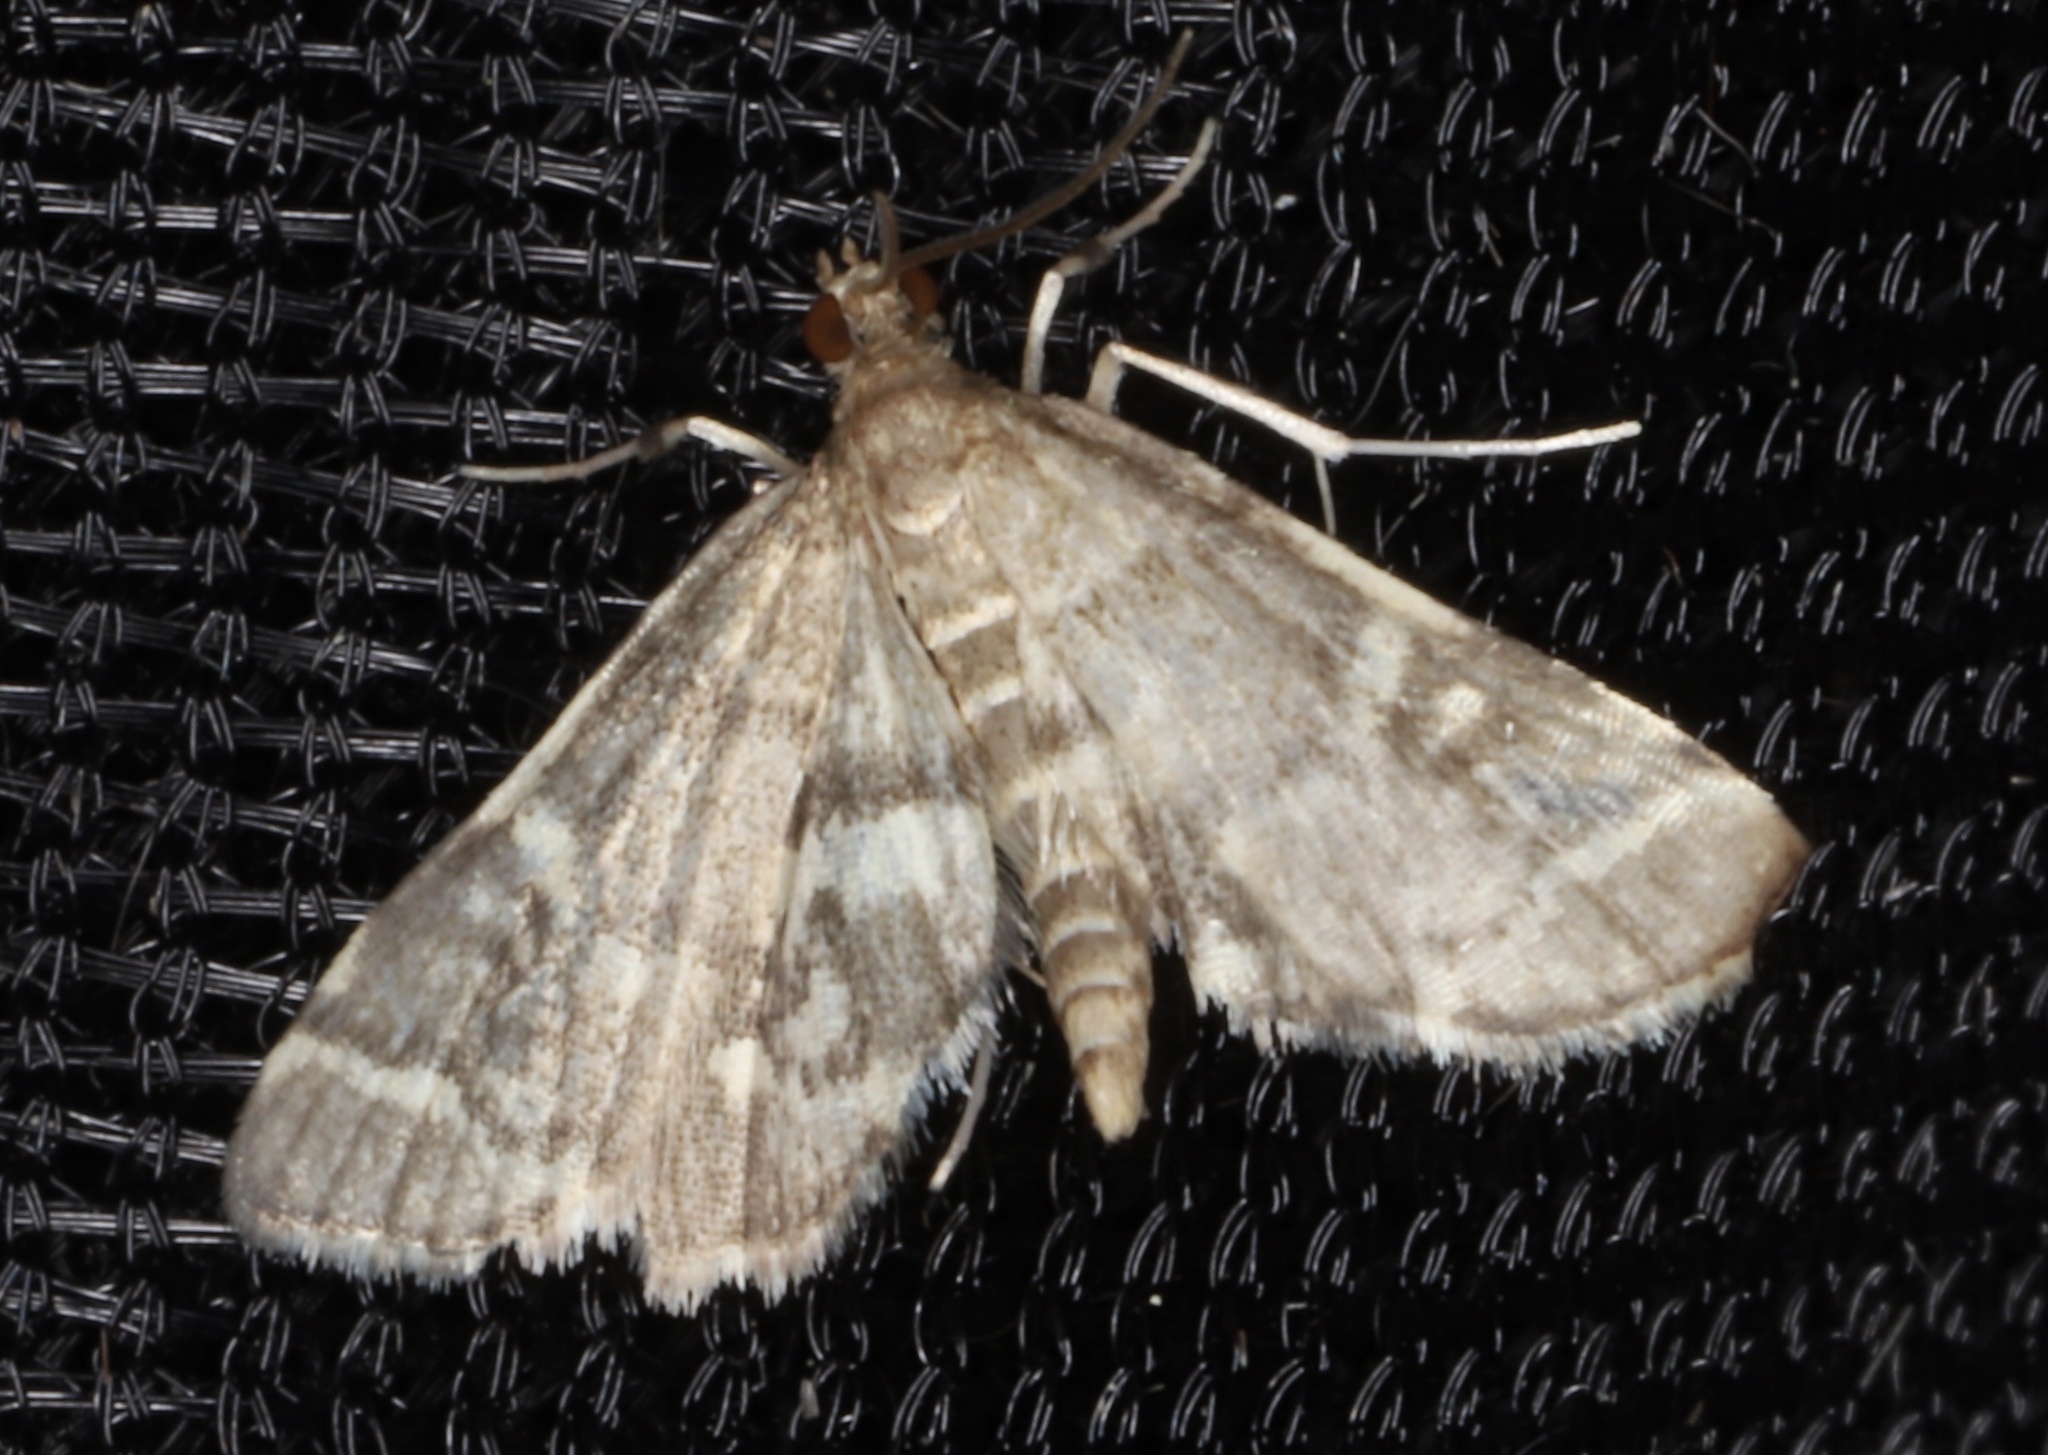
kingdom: Animalia
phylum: Arthropoda
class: Insecta
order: Lepidoptera
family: Crambidae
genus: Anageshna
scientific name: Anageshna primordialis
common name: Yellow-spotted webworm moth
